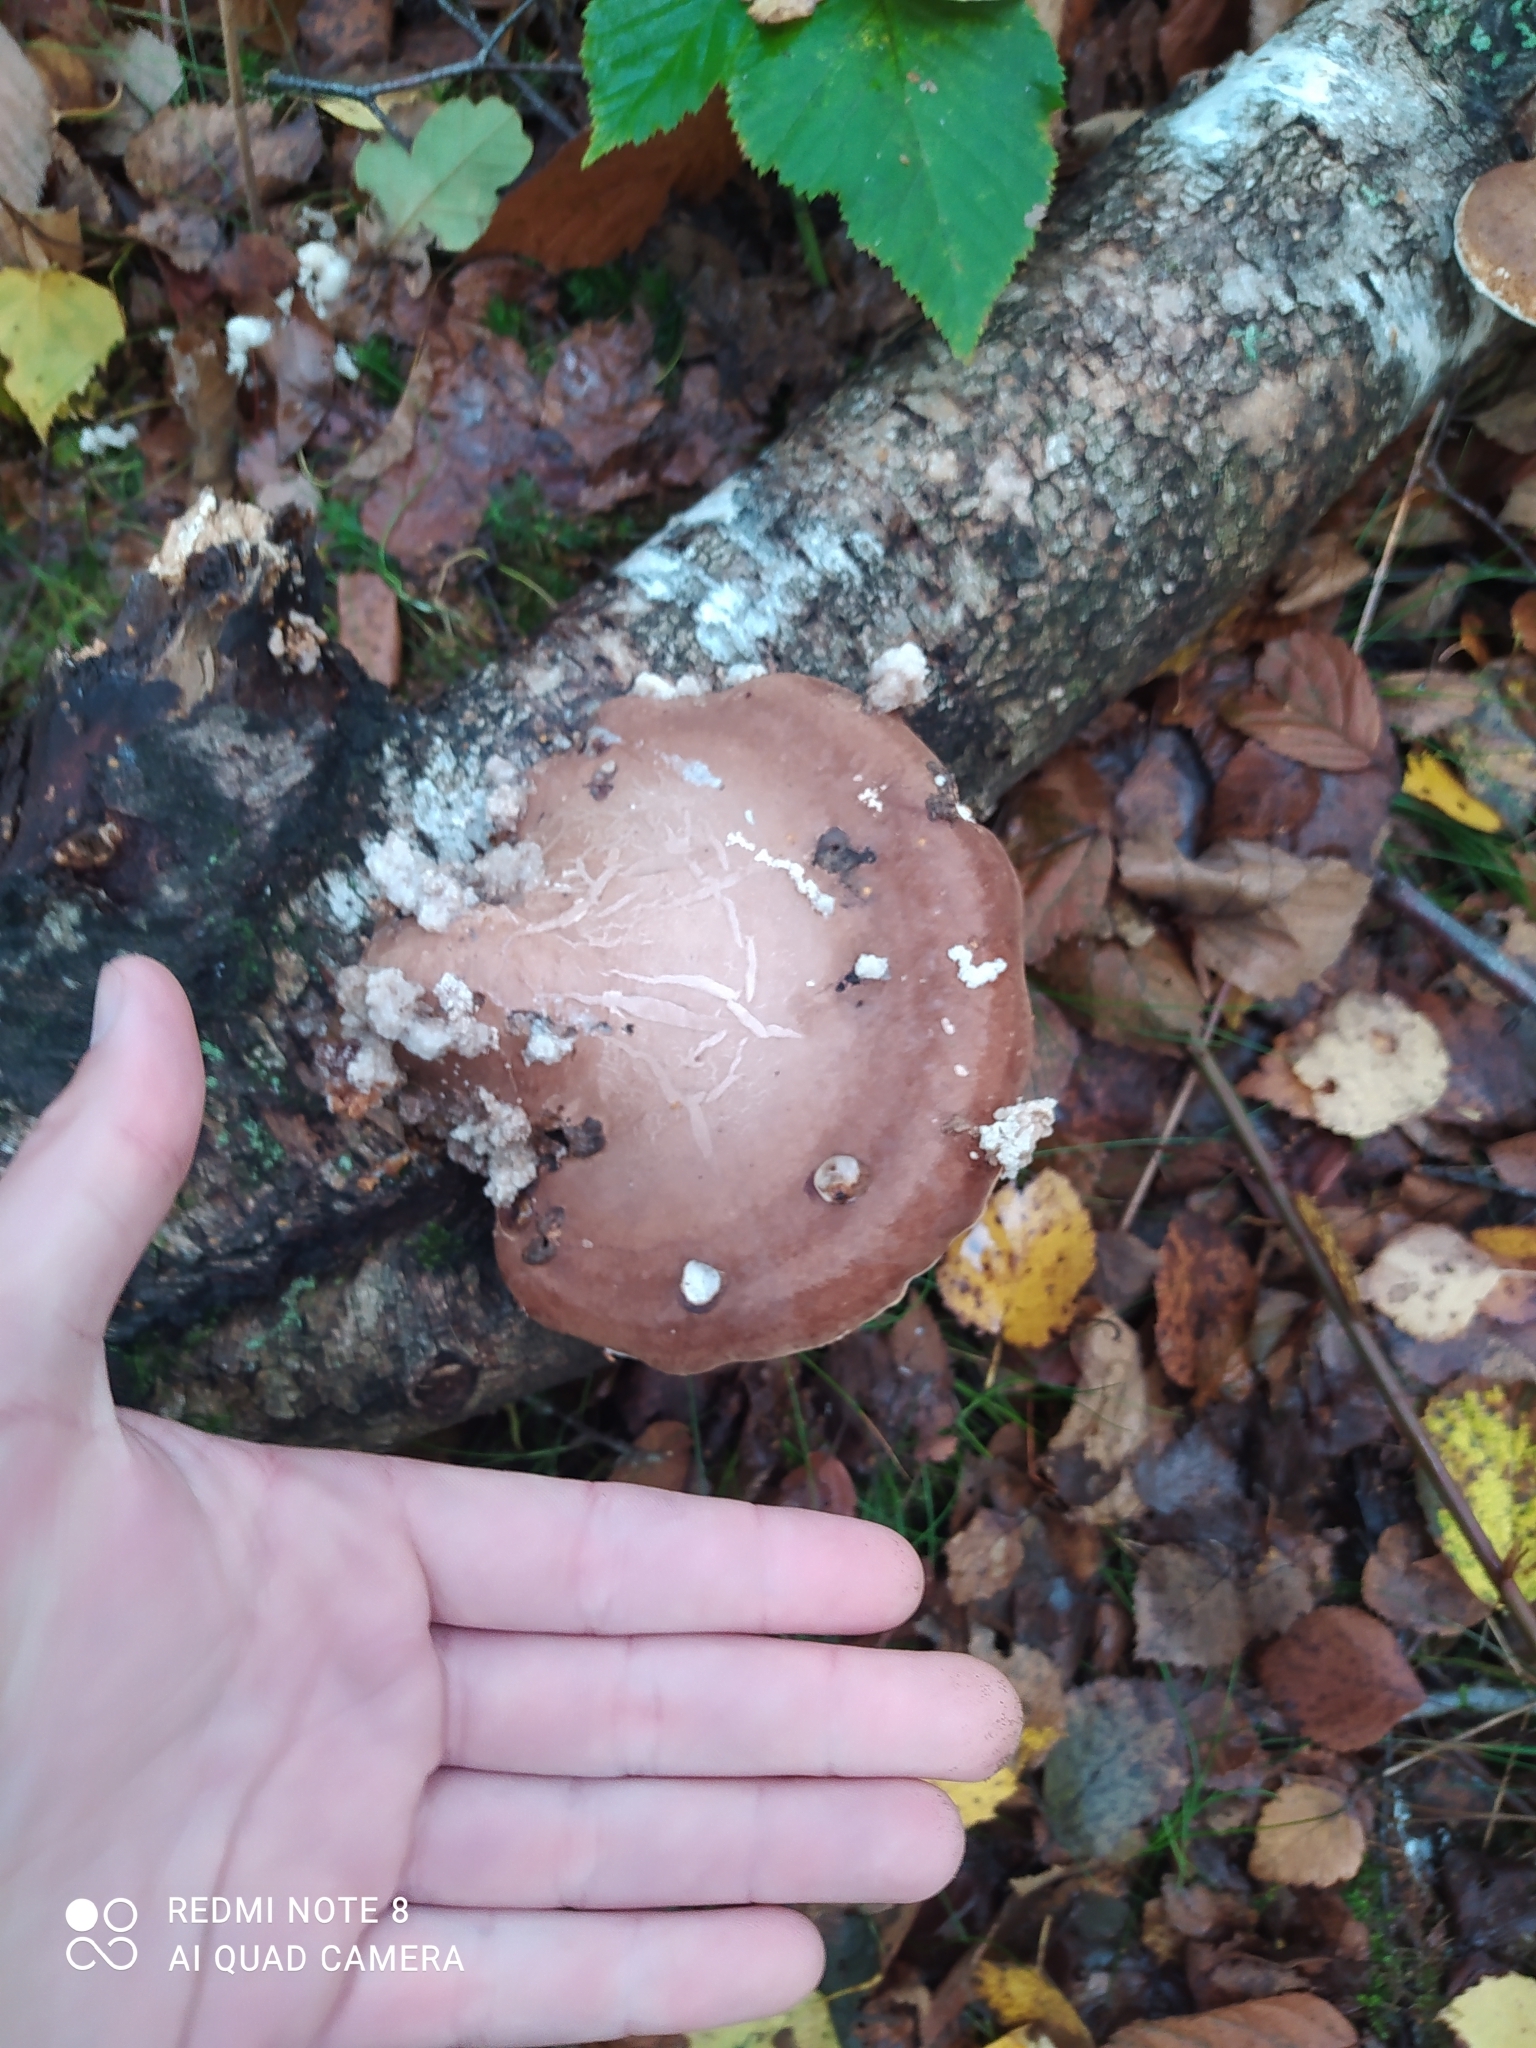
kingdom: Fungi
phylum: Basidiomycota
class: Agaricomycetes
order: Polyporales
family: Fomitopsidaceae
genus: Fomitopsis
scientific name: Fomitopsis betulina
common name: Birch polypore
